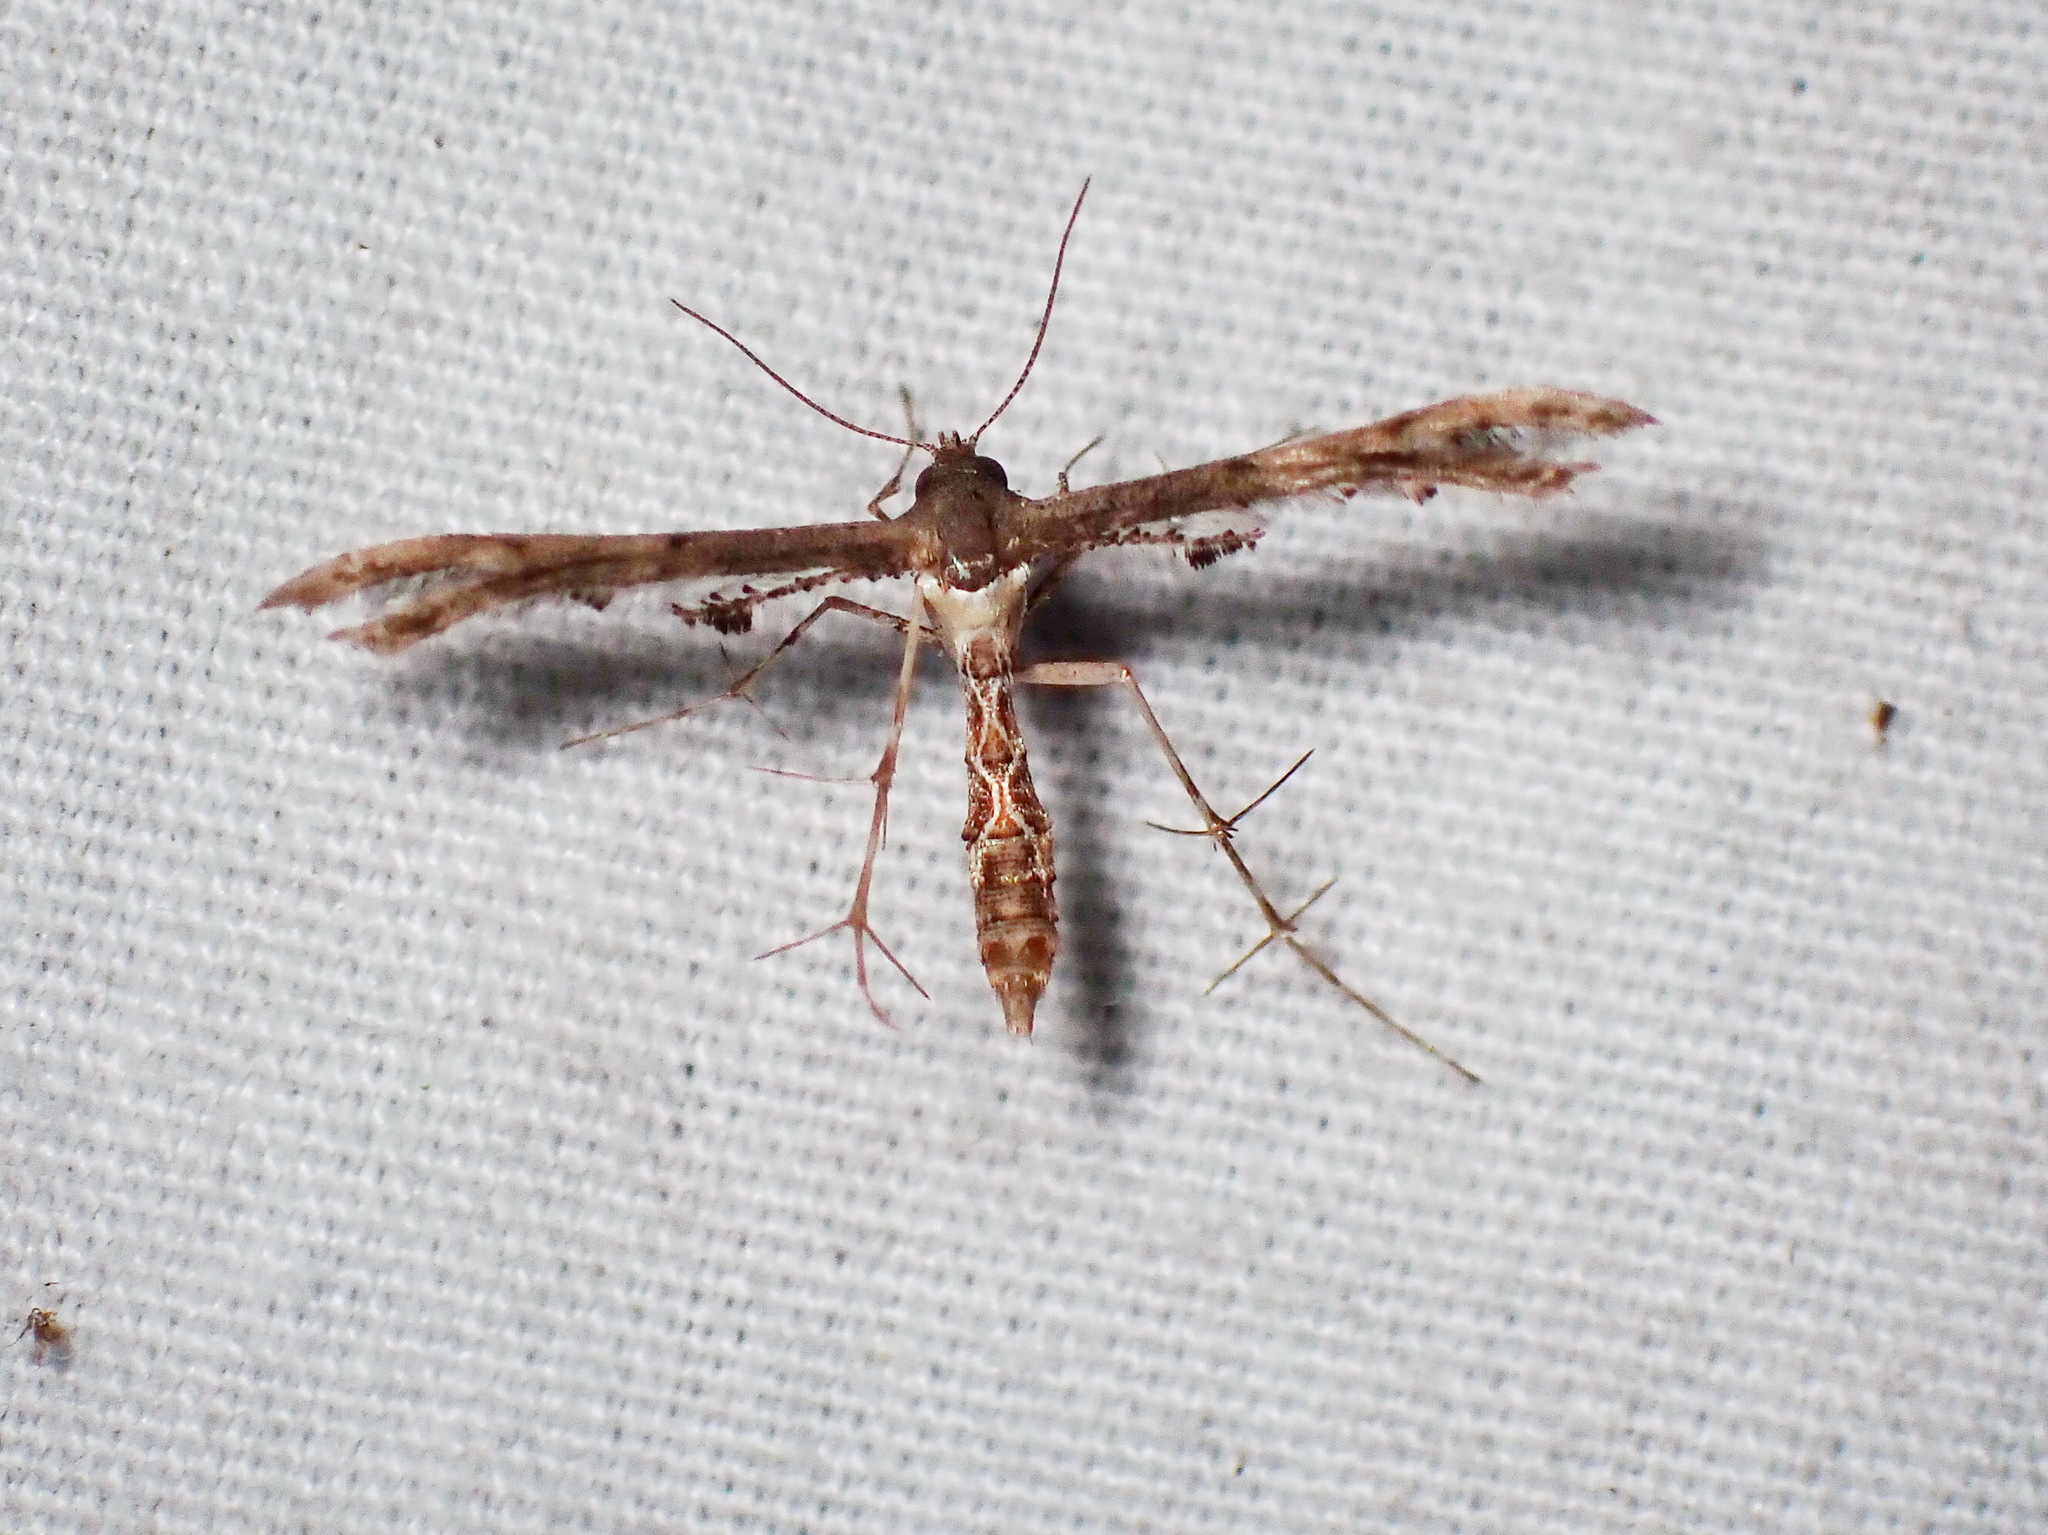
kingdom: Animalia
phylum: Arthropoda
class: Insecta
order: Lepidoptera
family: Pterophoridae
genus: Michaelophorus
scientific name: Michaelophorus indentatus
